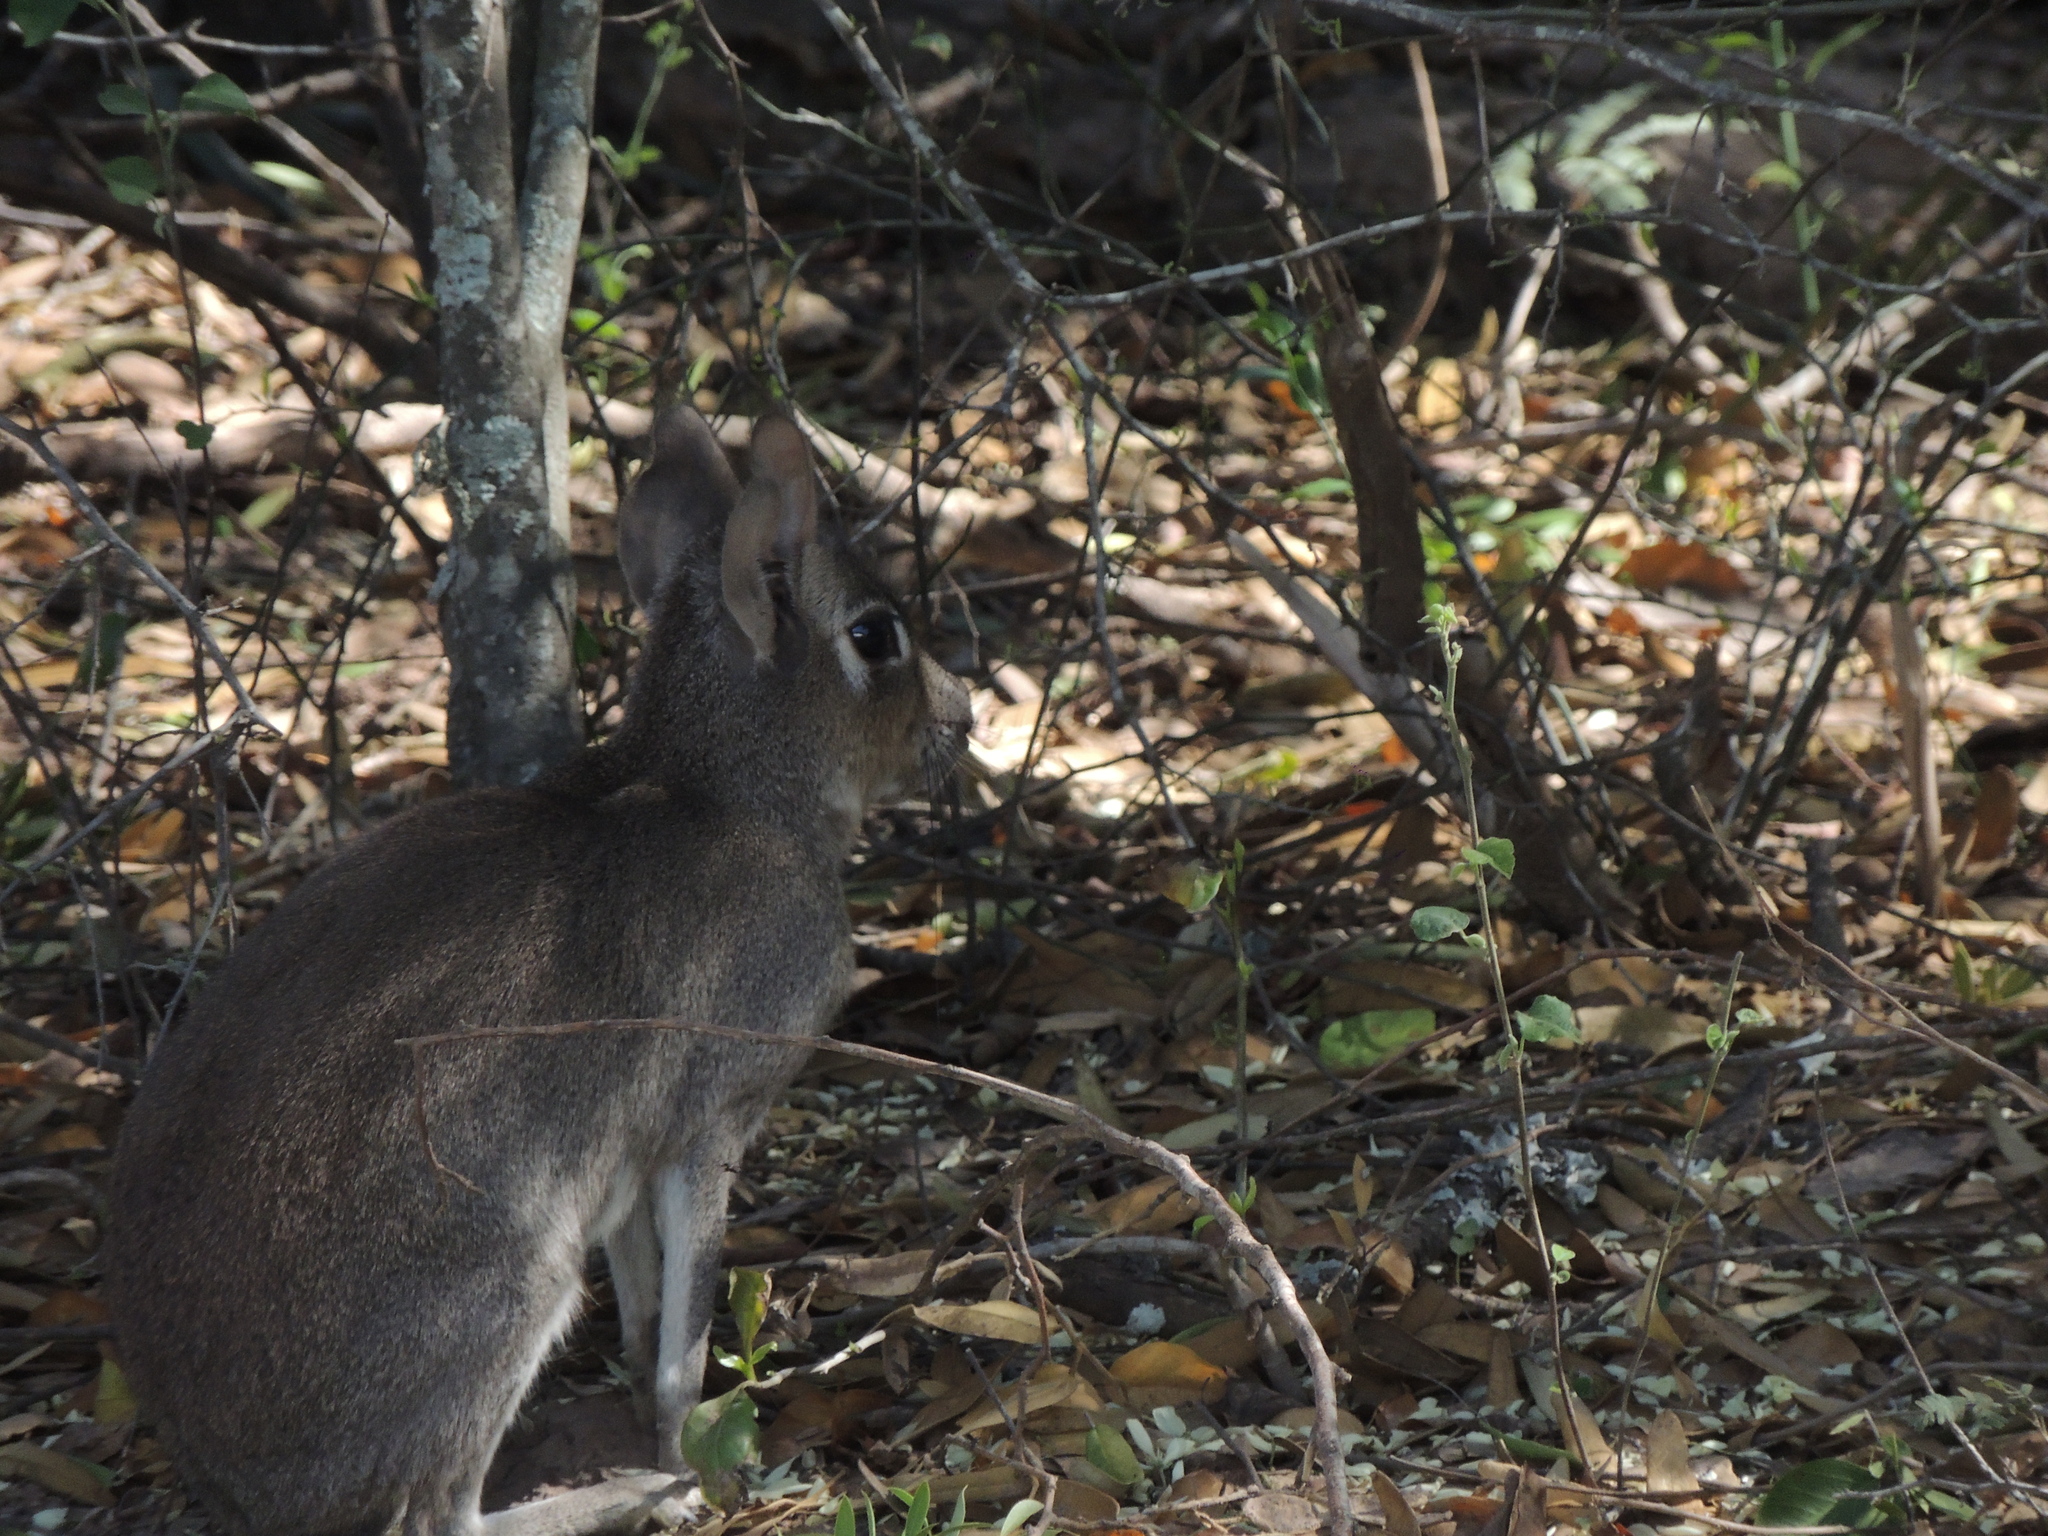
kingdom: Animalia
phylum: Chordata
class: Mammalia
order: Rodentia
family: Caviidae
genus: Dolichotis
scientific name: Dolichotis Pediolagus salinicola
